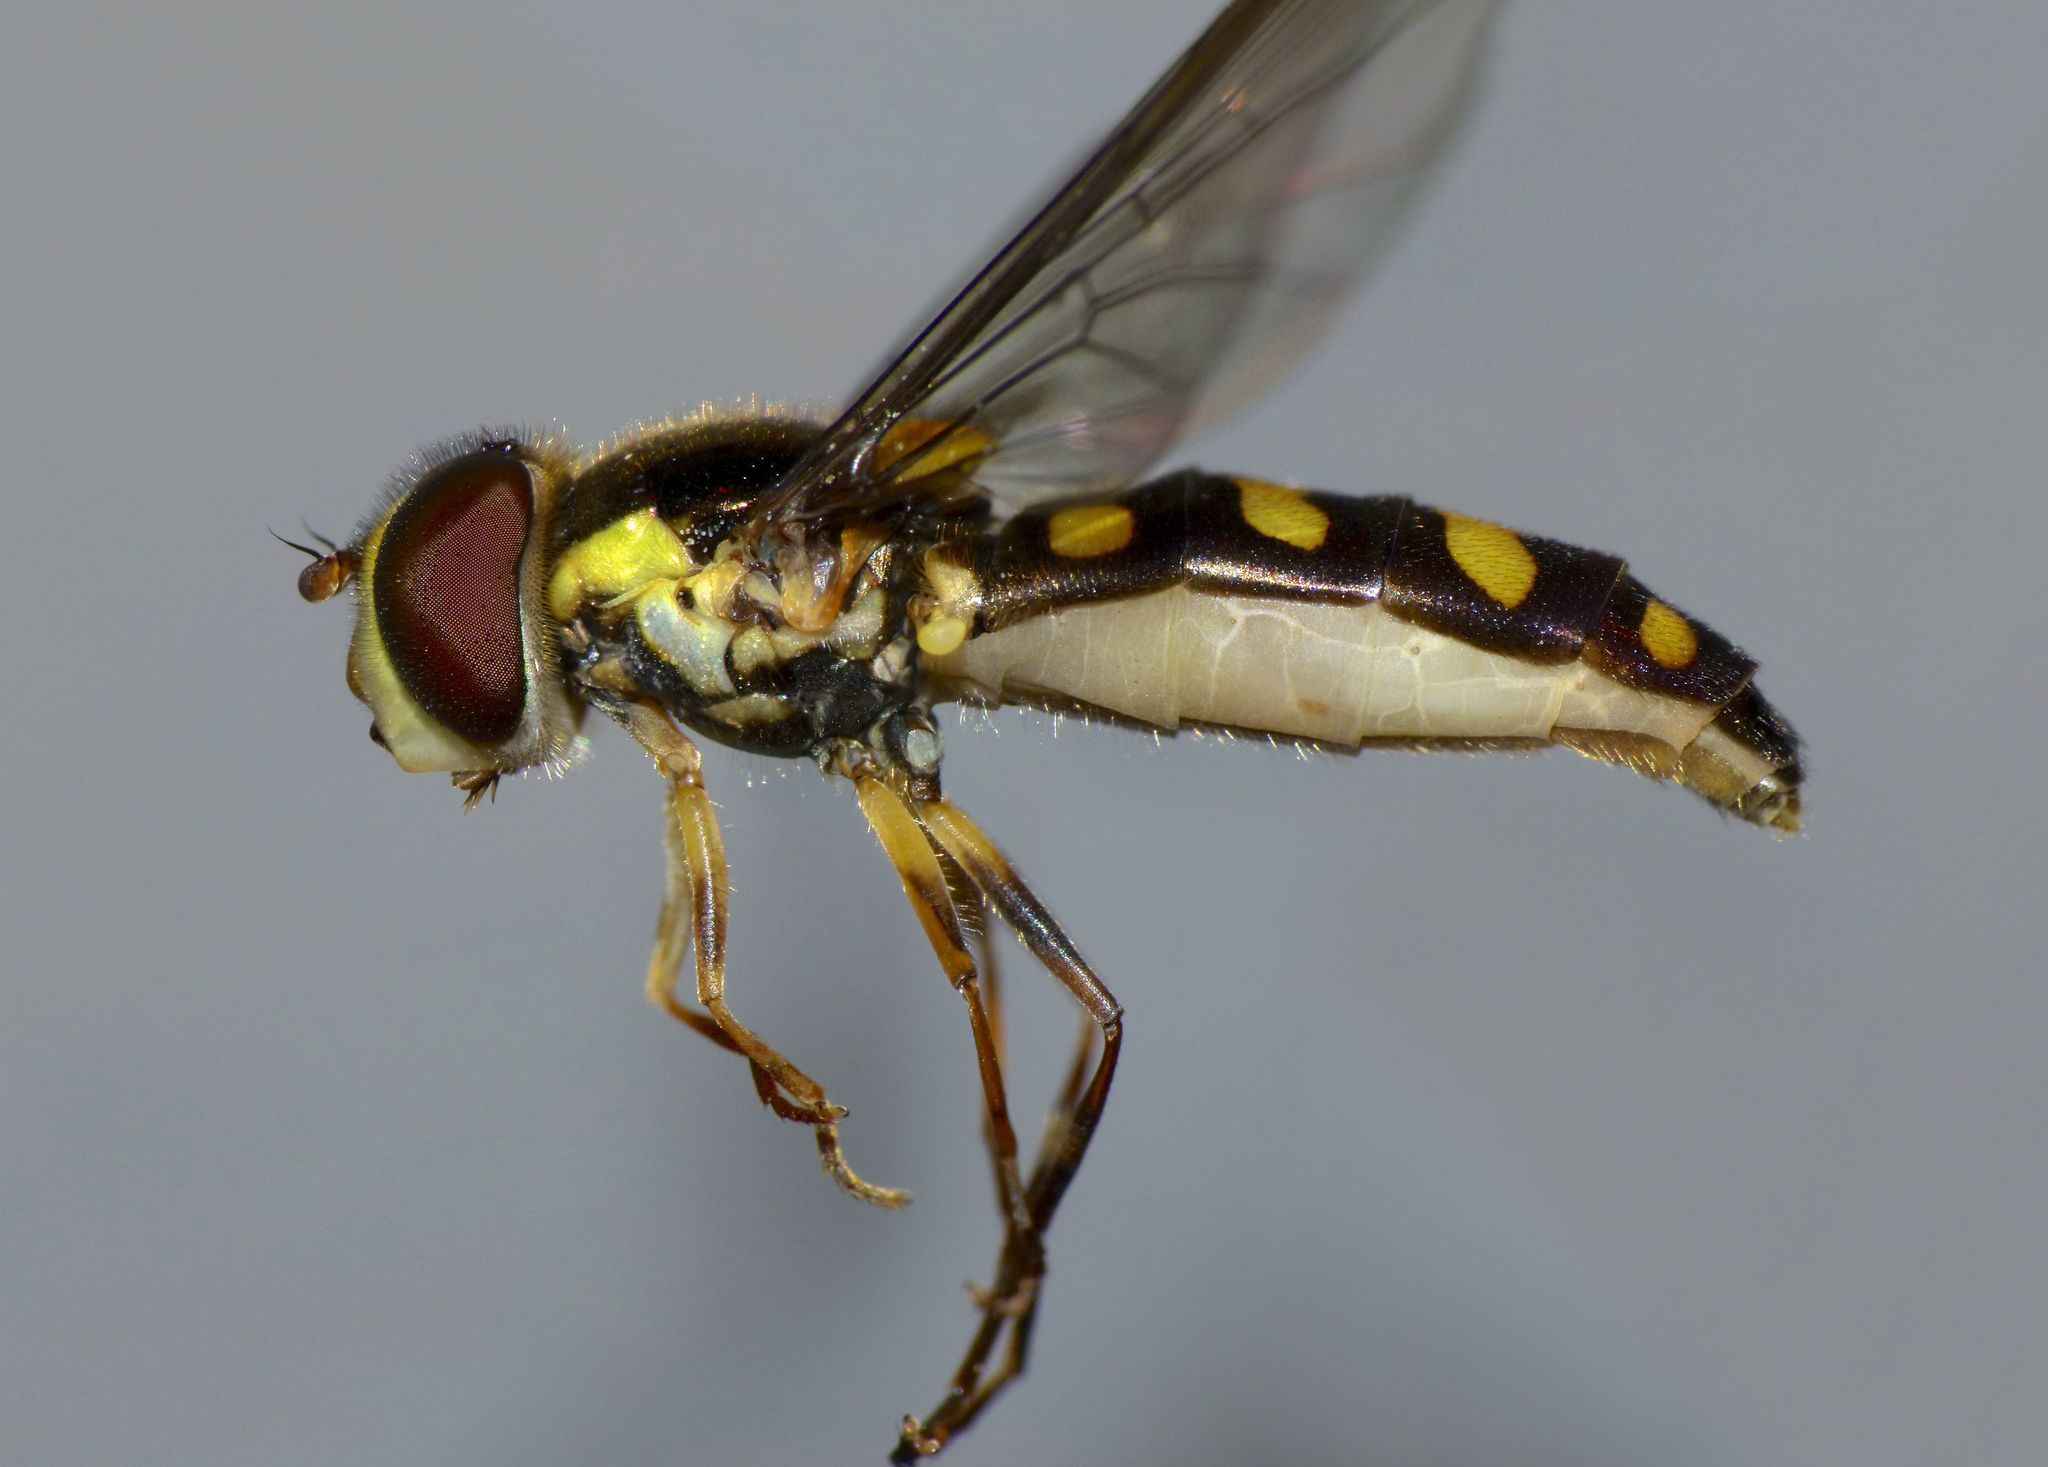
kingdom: Animalia
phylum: Arthropoda
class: Insecta
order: Diptera
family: Syrphidae
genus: Allograpta
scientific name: Allograpta ropala
